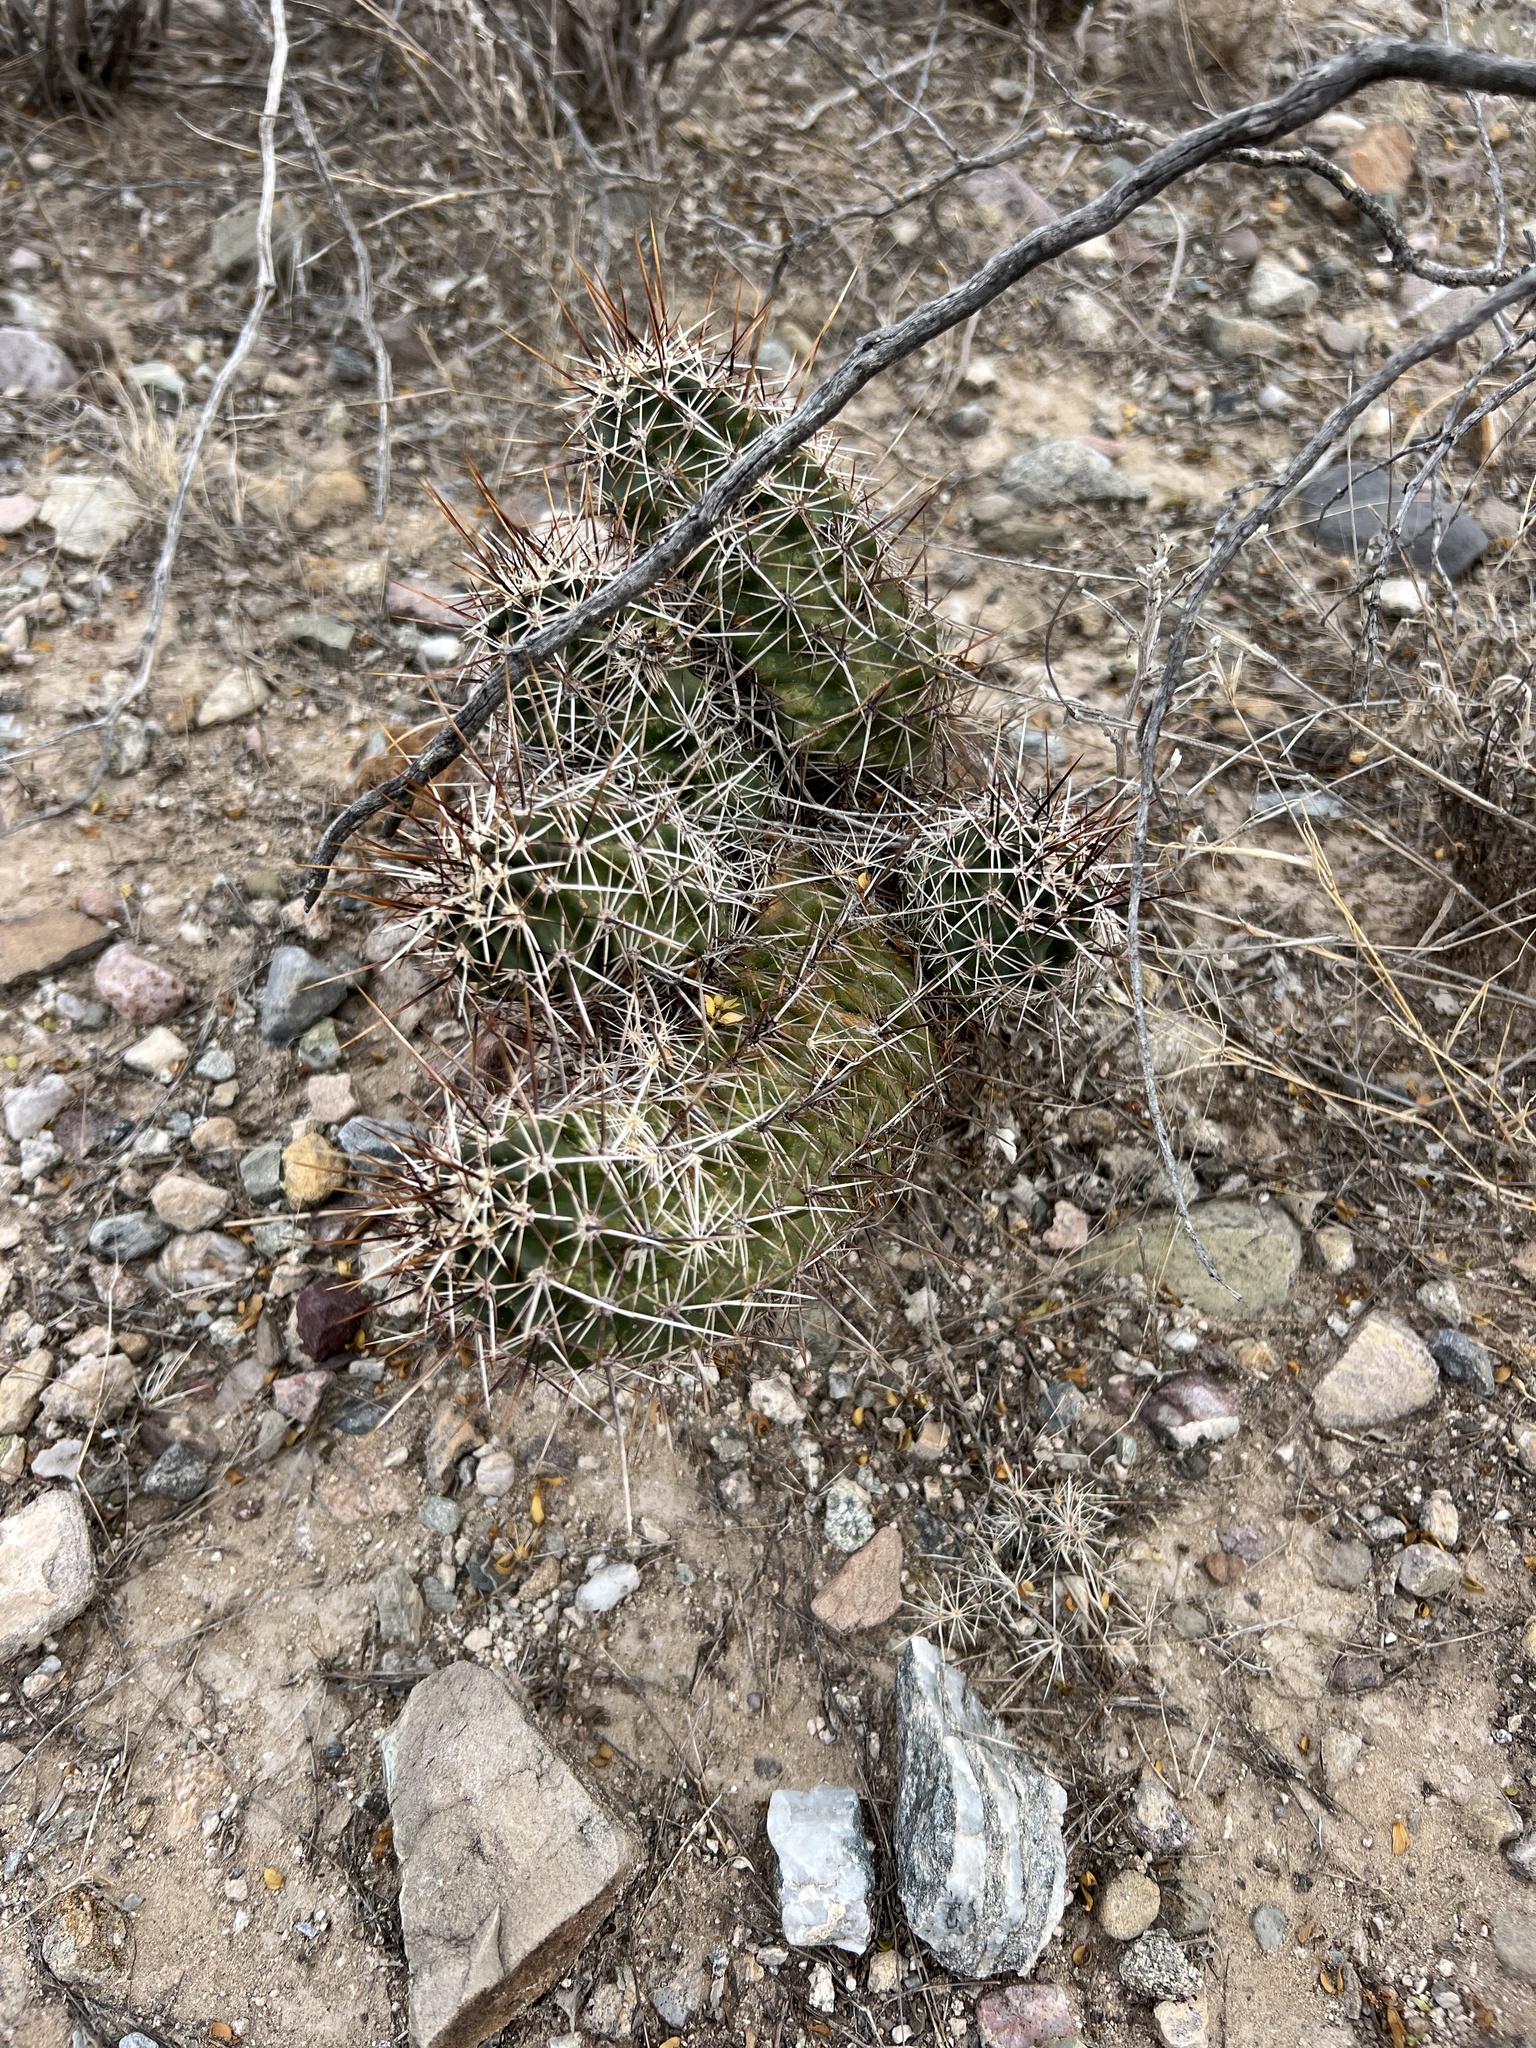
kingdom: Plantae
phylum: Tracheophyta
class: Magnoliopsida
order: Caryophyllales
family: Cactaceae
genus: Echinocereus
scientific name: Echinocereus fasciculatus
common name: Bundle hedgehog
